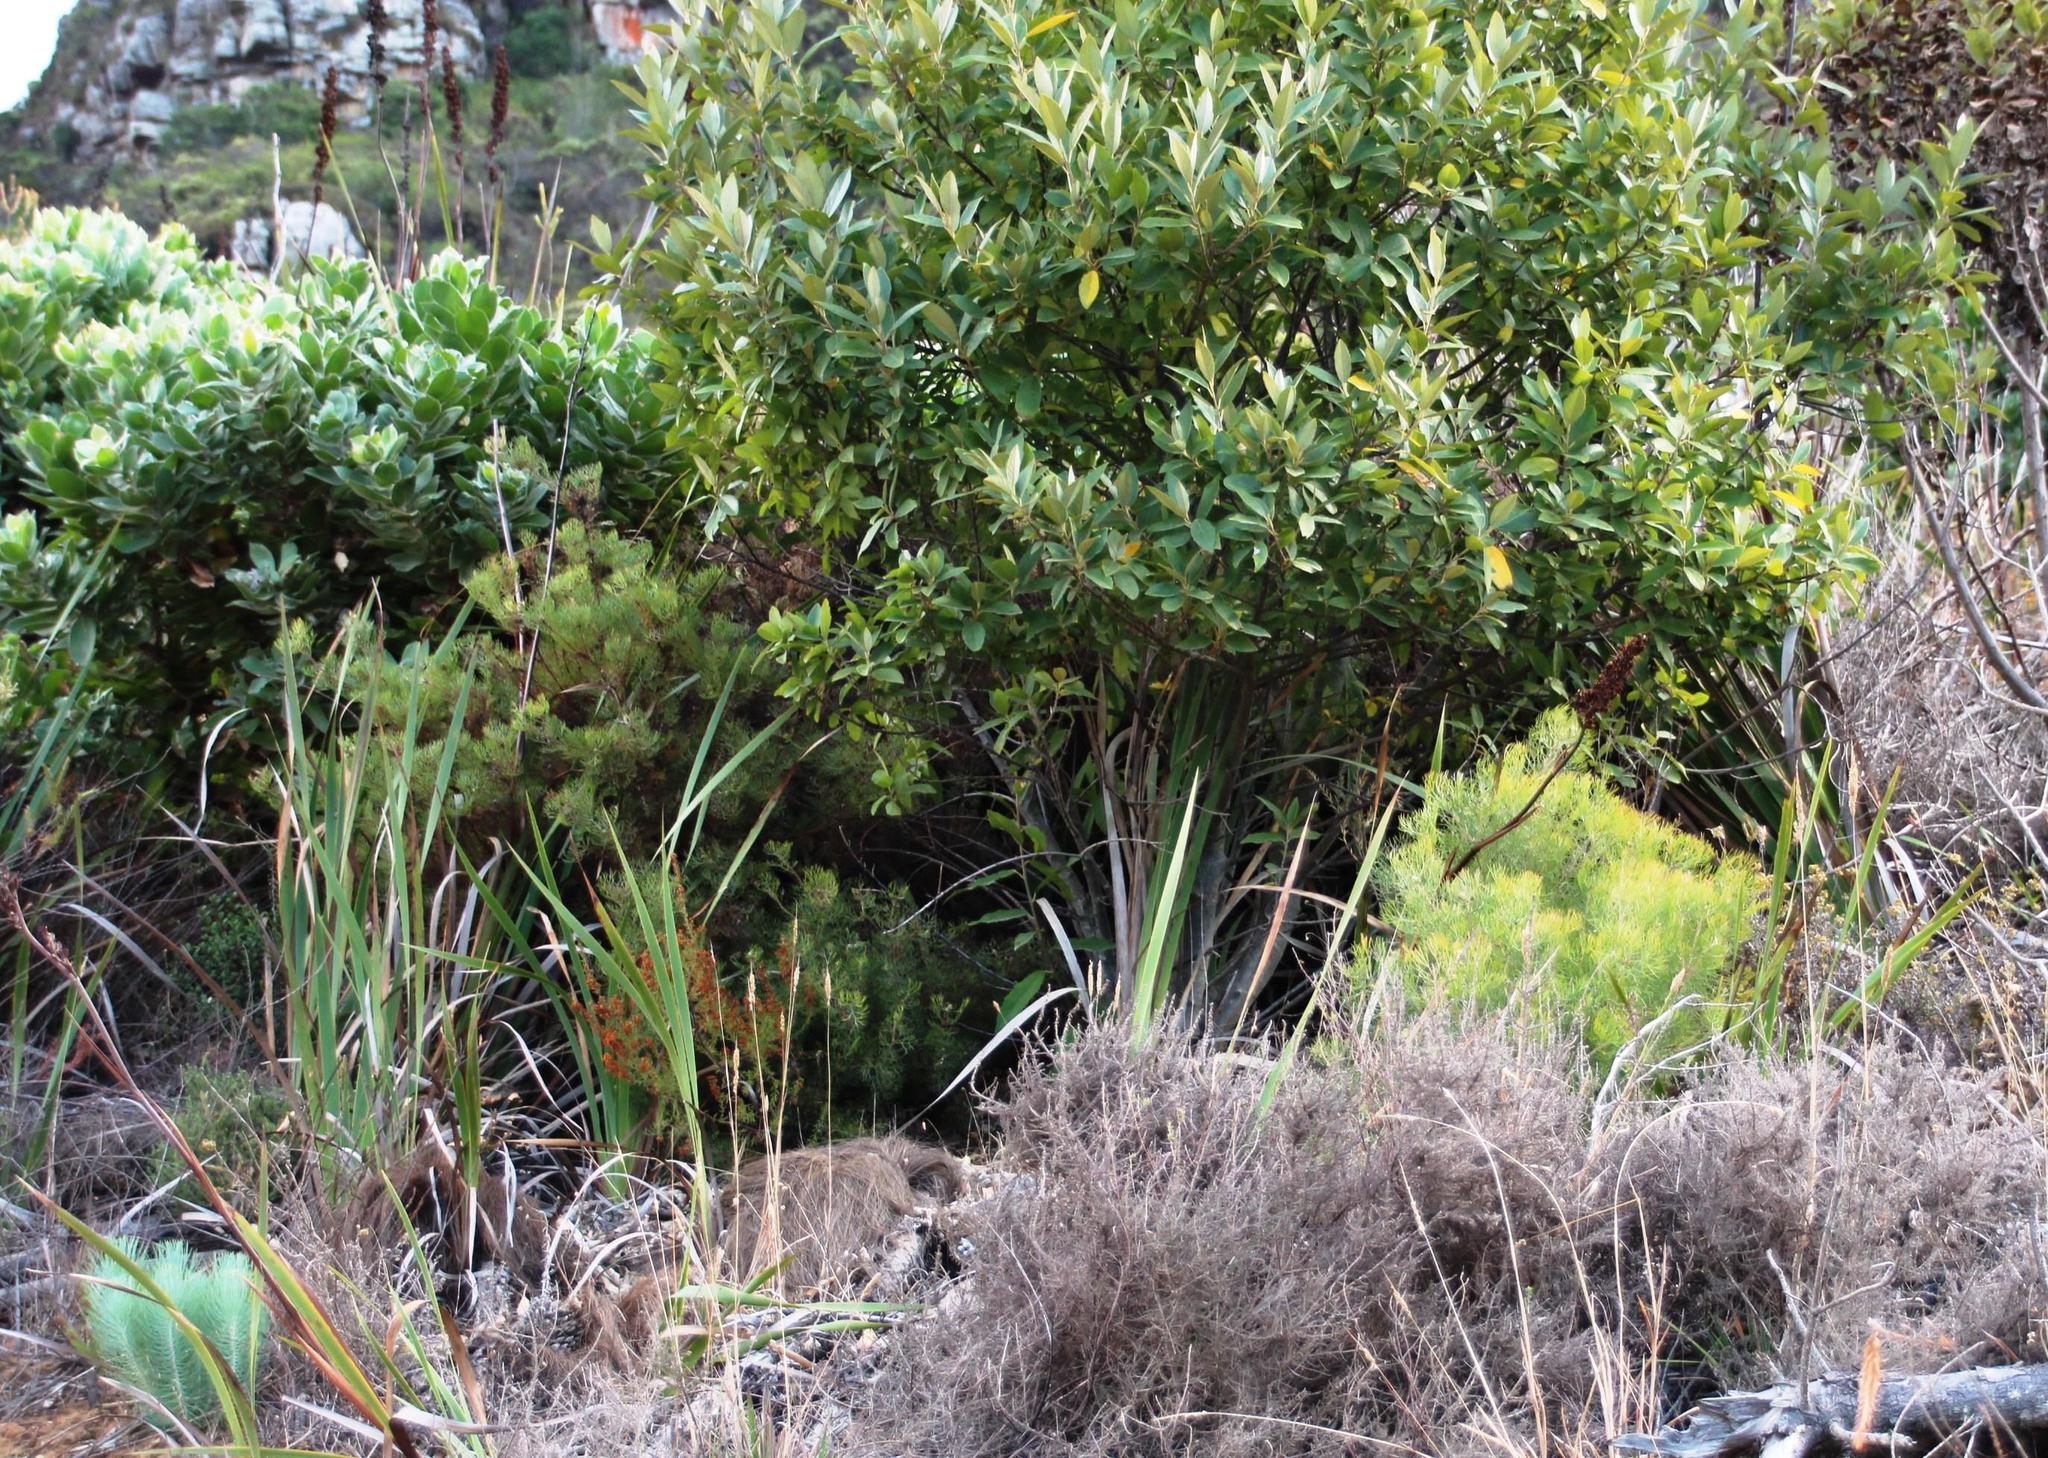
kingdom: Plantae
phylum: Tracheophyta
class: Magnoliopsida
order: Proteales
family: Proteaceae
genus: Serruria
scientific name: Serruria fasciflora
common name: Common pin spiderhead
